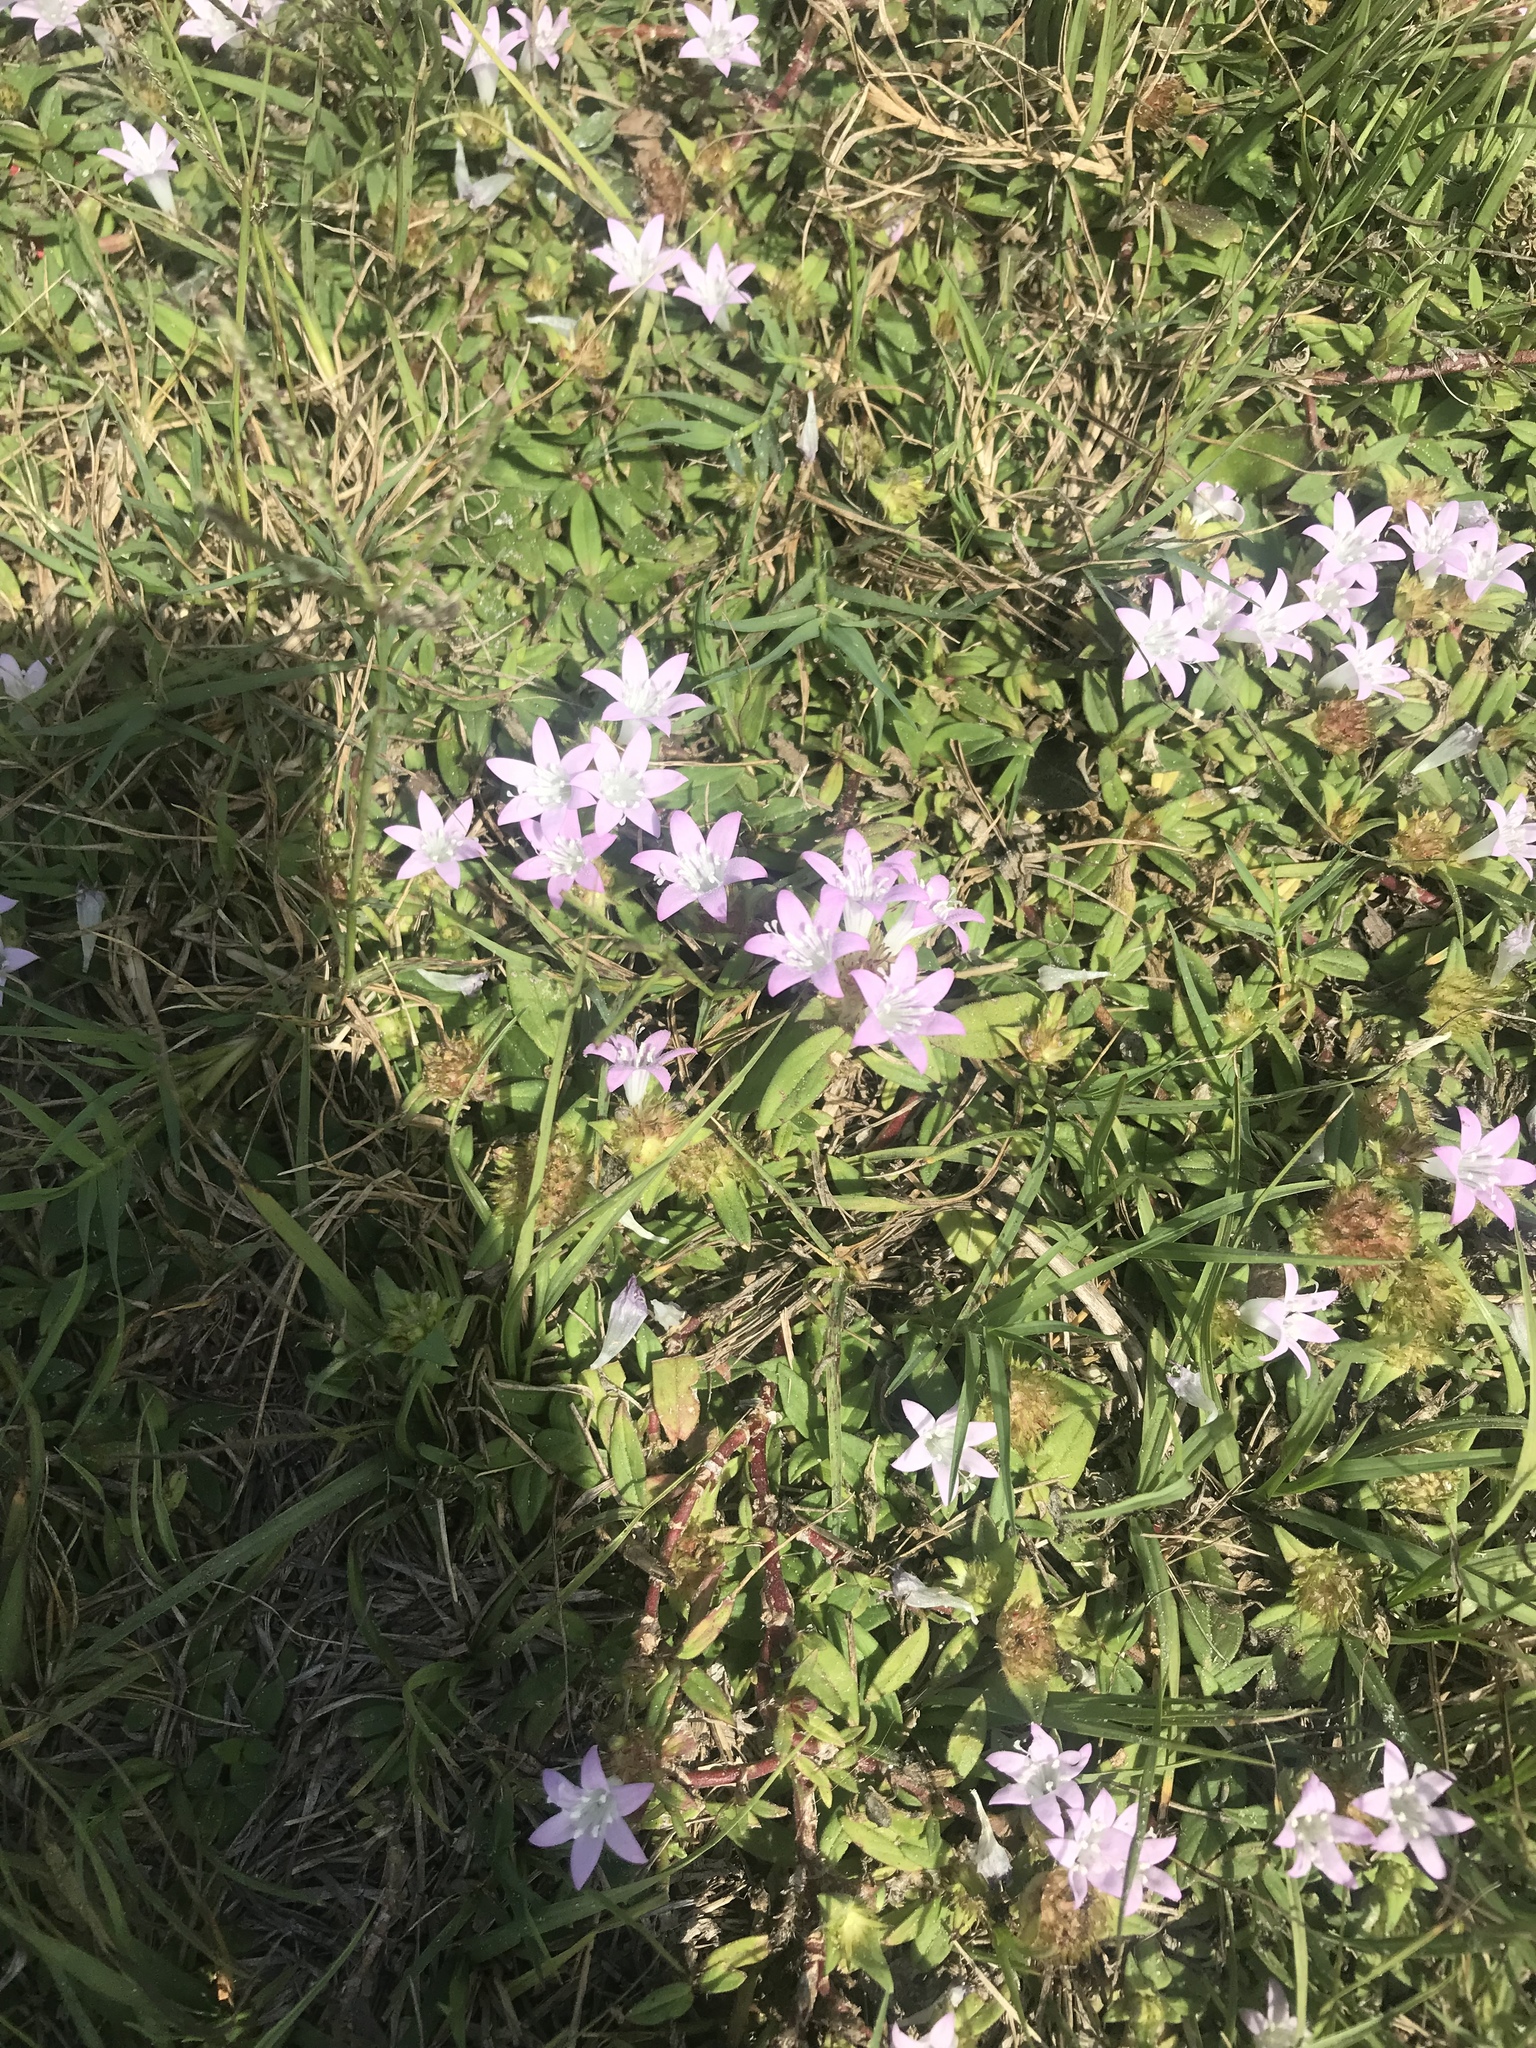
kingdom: Plantae
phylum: Tracheophyta
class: Magnoliopsida
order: Gentianales
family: Rubiaceae
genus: Richardia
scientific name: Richardia grandiflora
